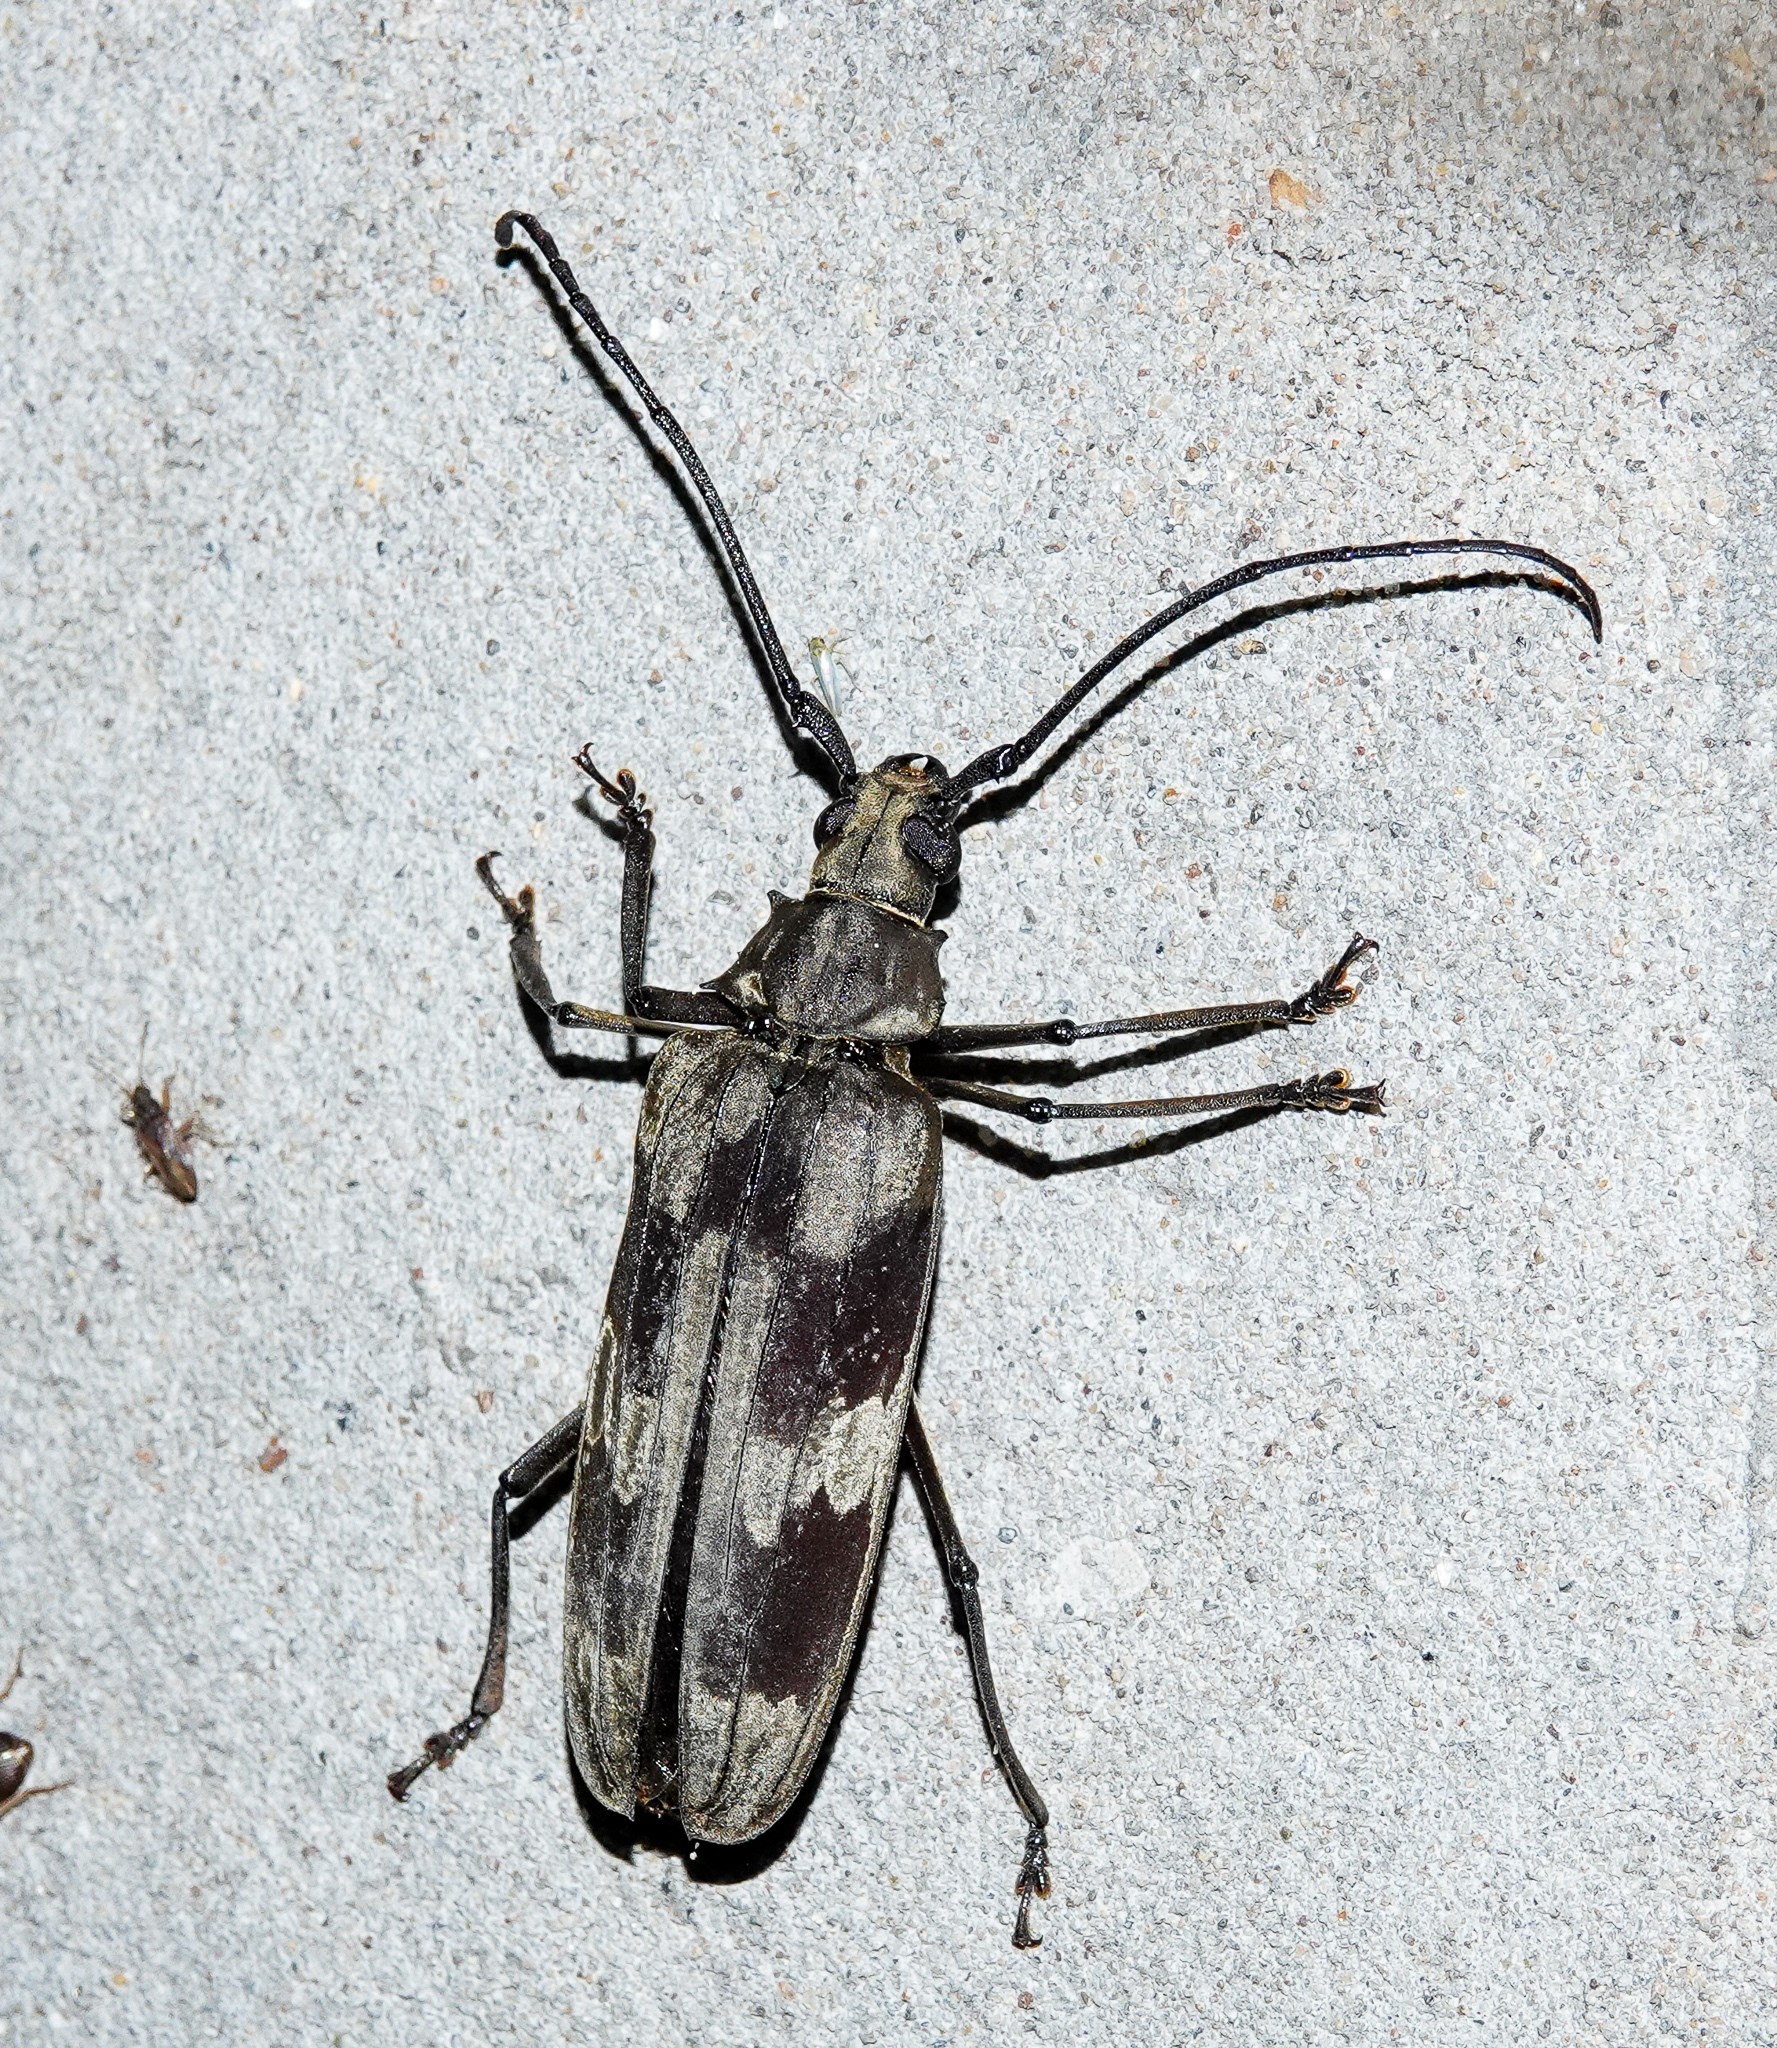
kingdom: Animalia
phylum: Arthropoda
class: Insecta
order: Coleoptera
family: Cerambycidae
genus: Baralipton
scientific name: Baralipton maculosum
